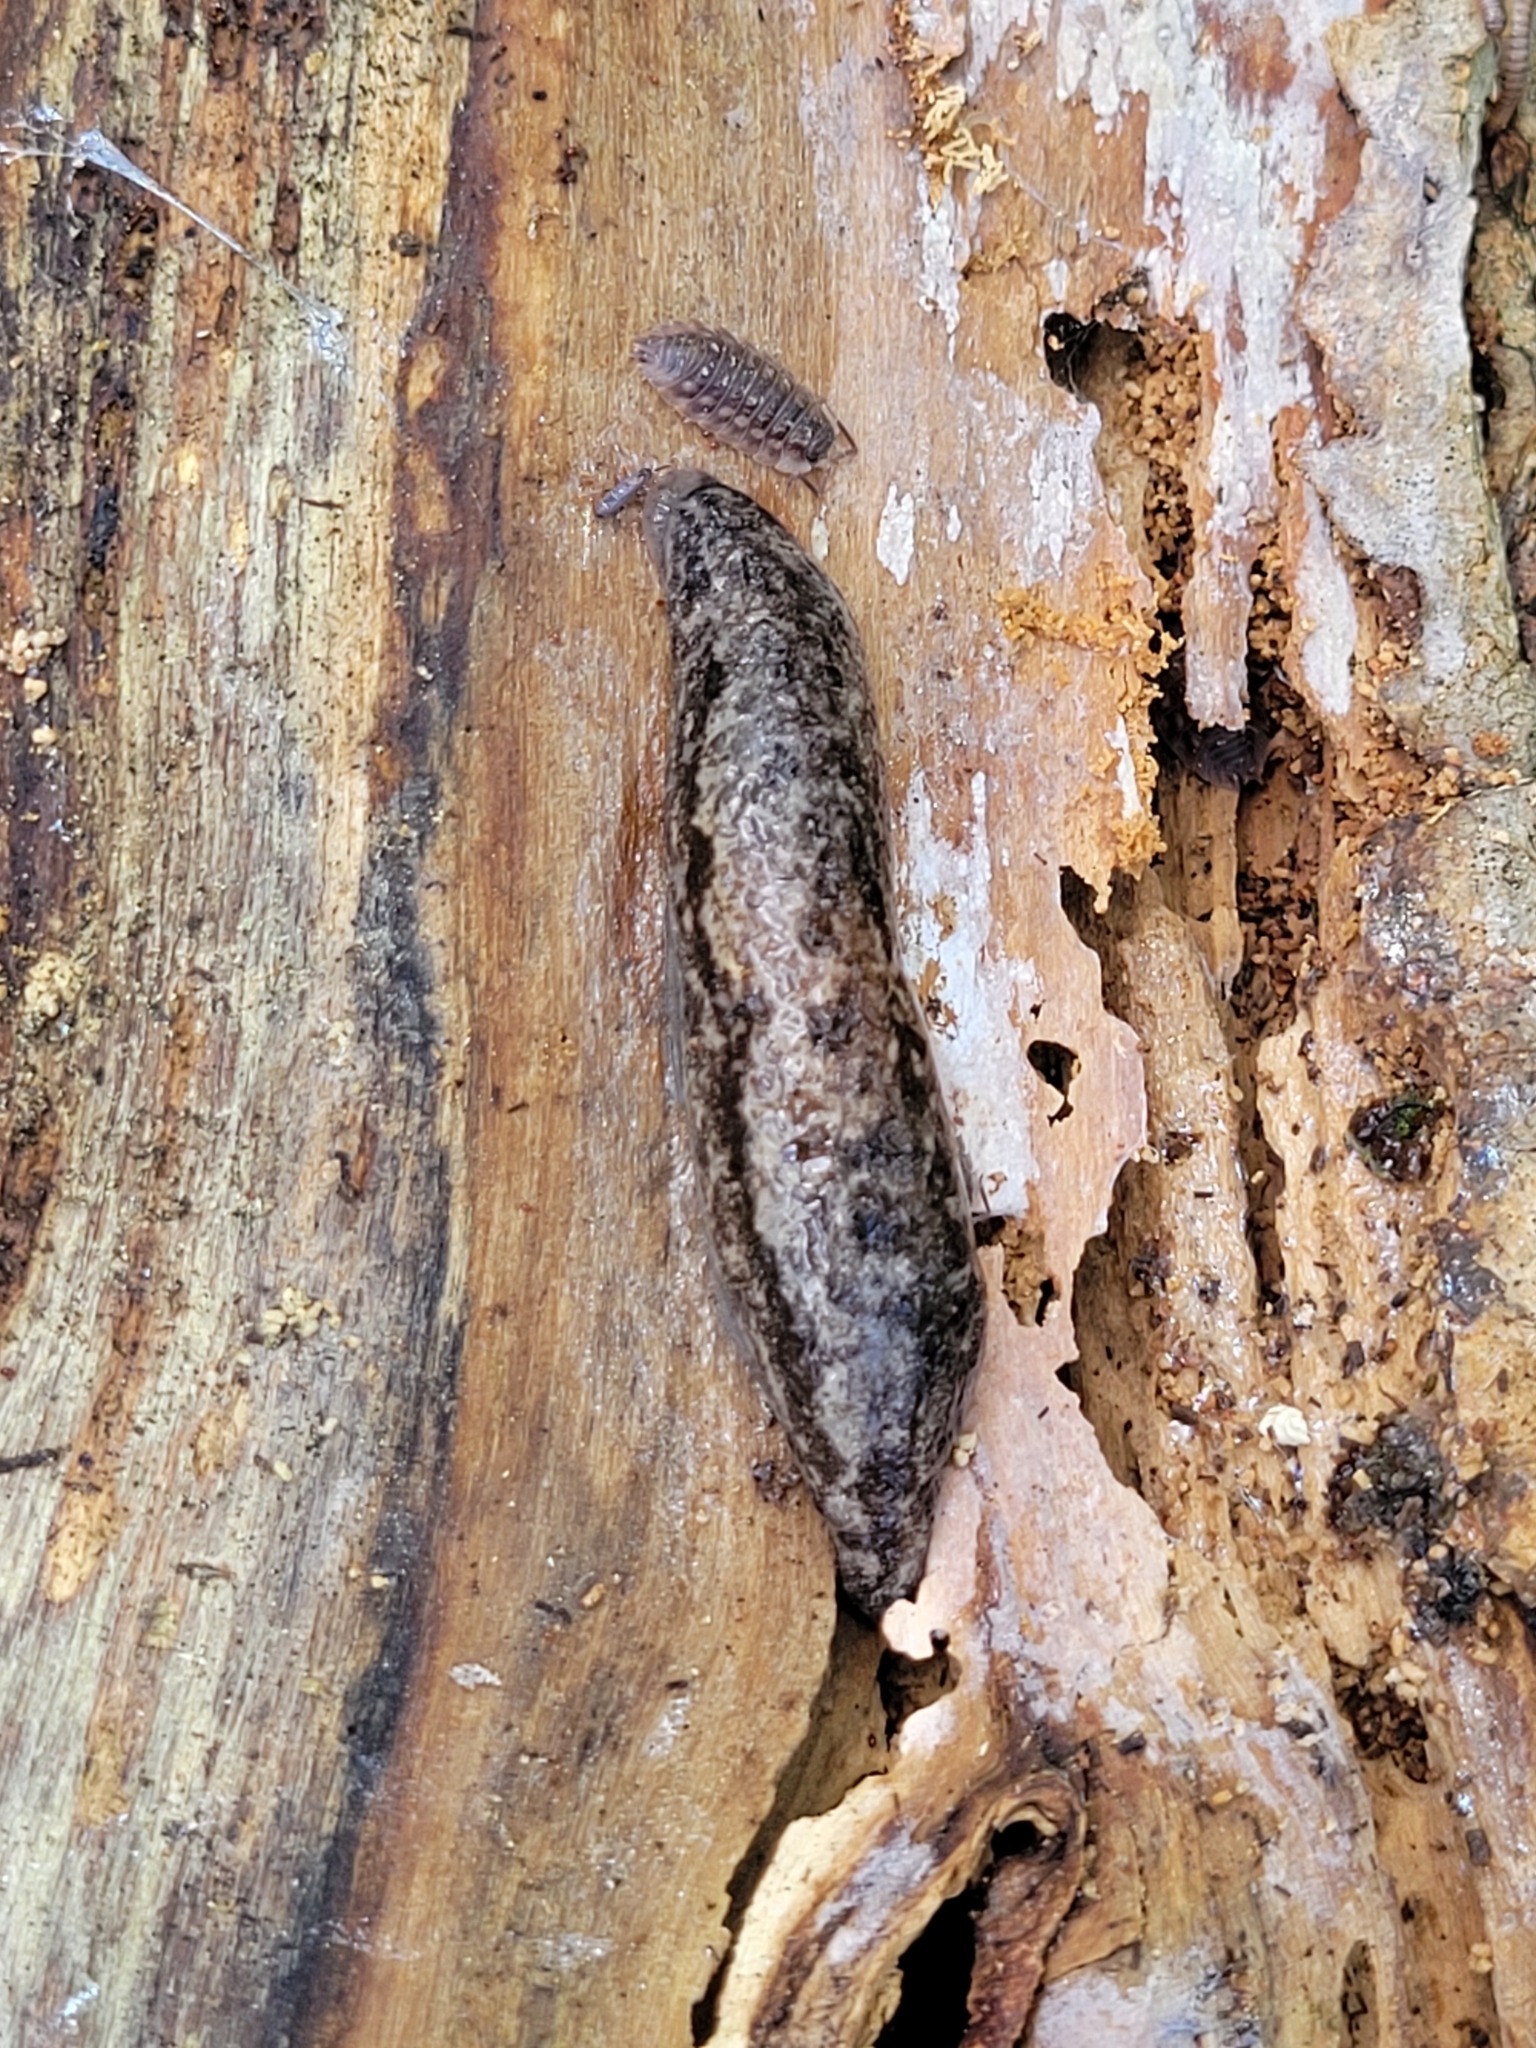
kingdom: Animalia
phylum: Mollusca
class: Gastropoda
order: Stylommatophora
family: Philomycidae
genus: Megapallifera
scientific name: Megapallifera mutabilis
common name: Changeable mantleslug
